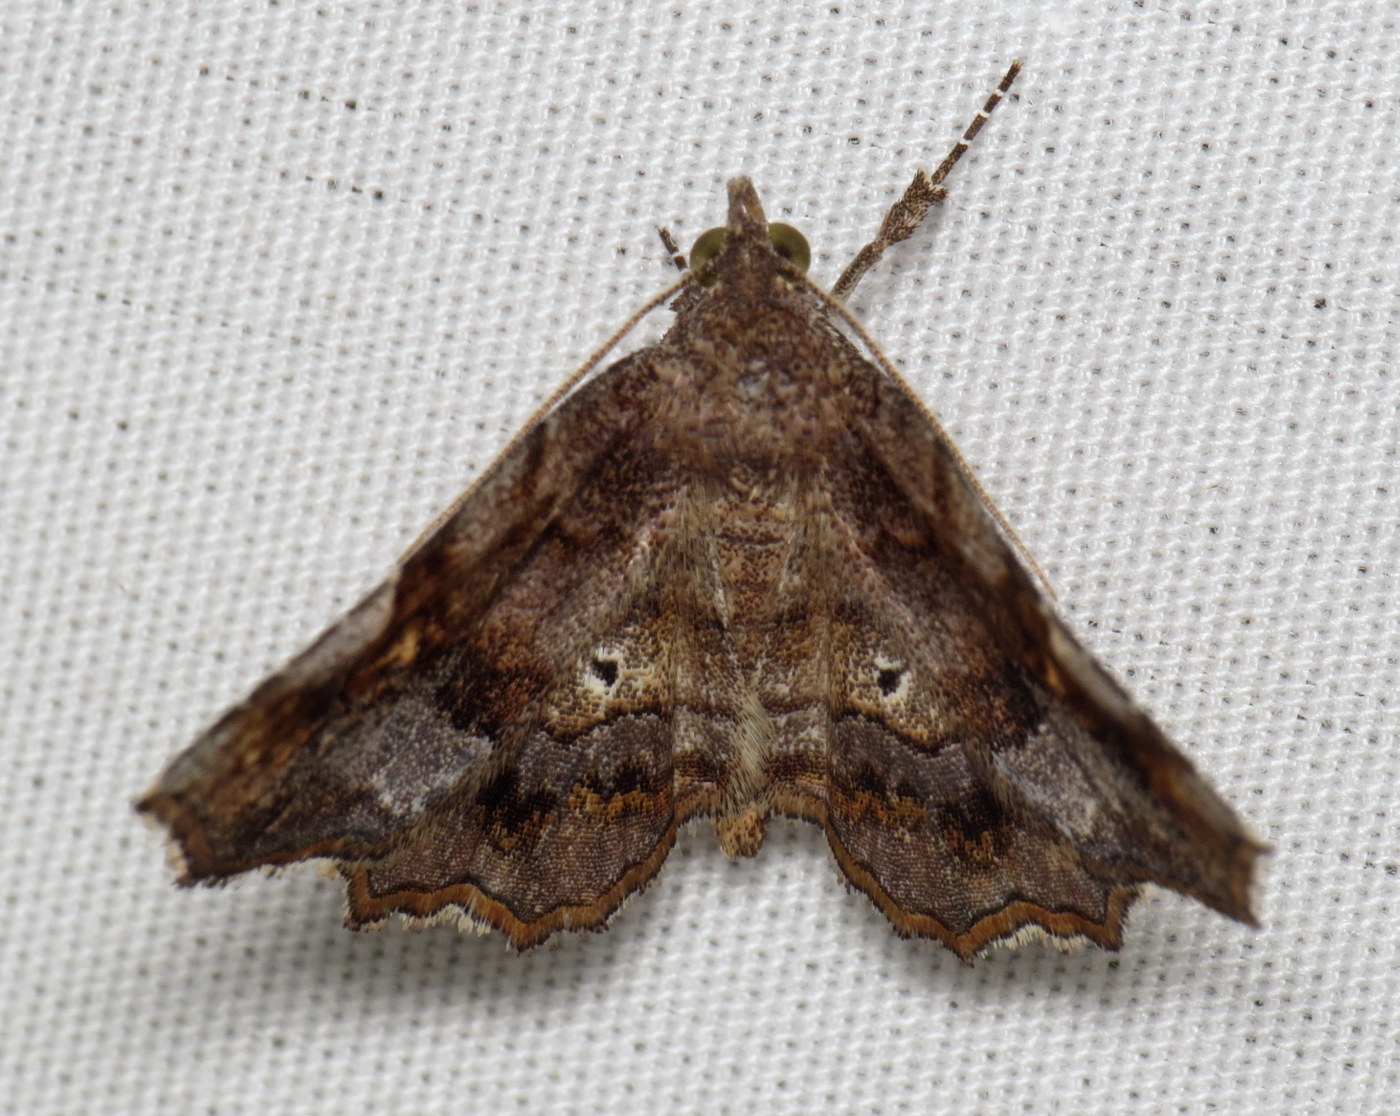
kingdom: Animalia
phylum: Arthropoda
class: Insecta
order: Lepidoptera
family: Erebidae
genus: Pangrapta
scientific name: Pangrapta decoralis
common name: Decorated owlet
